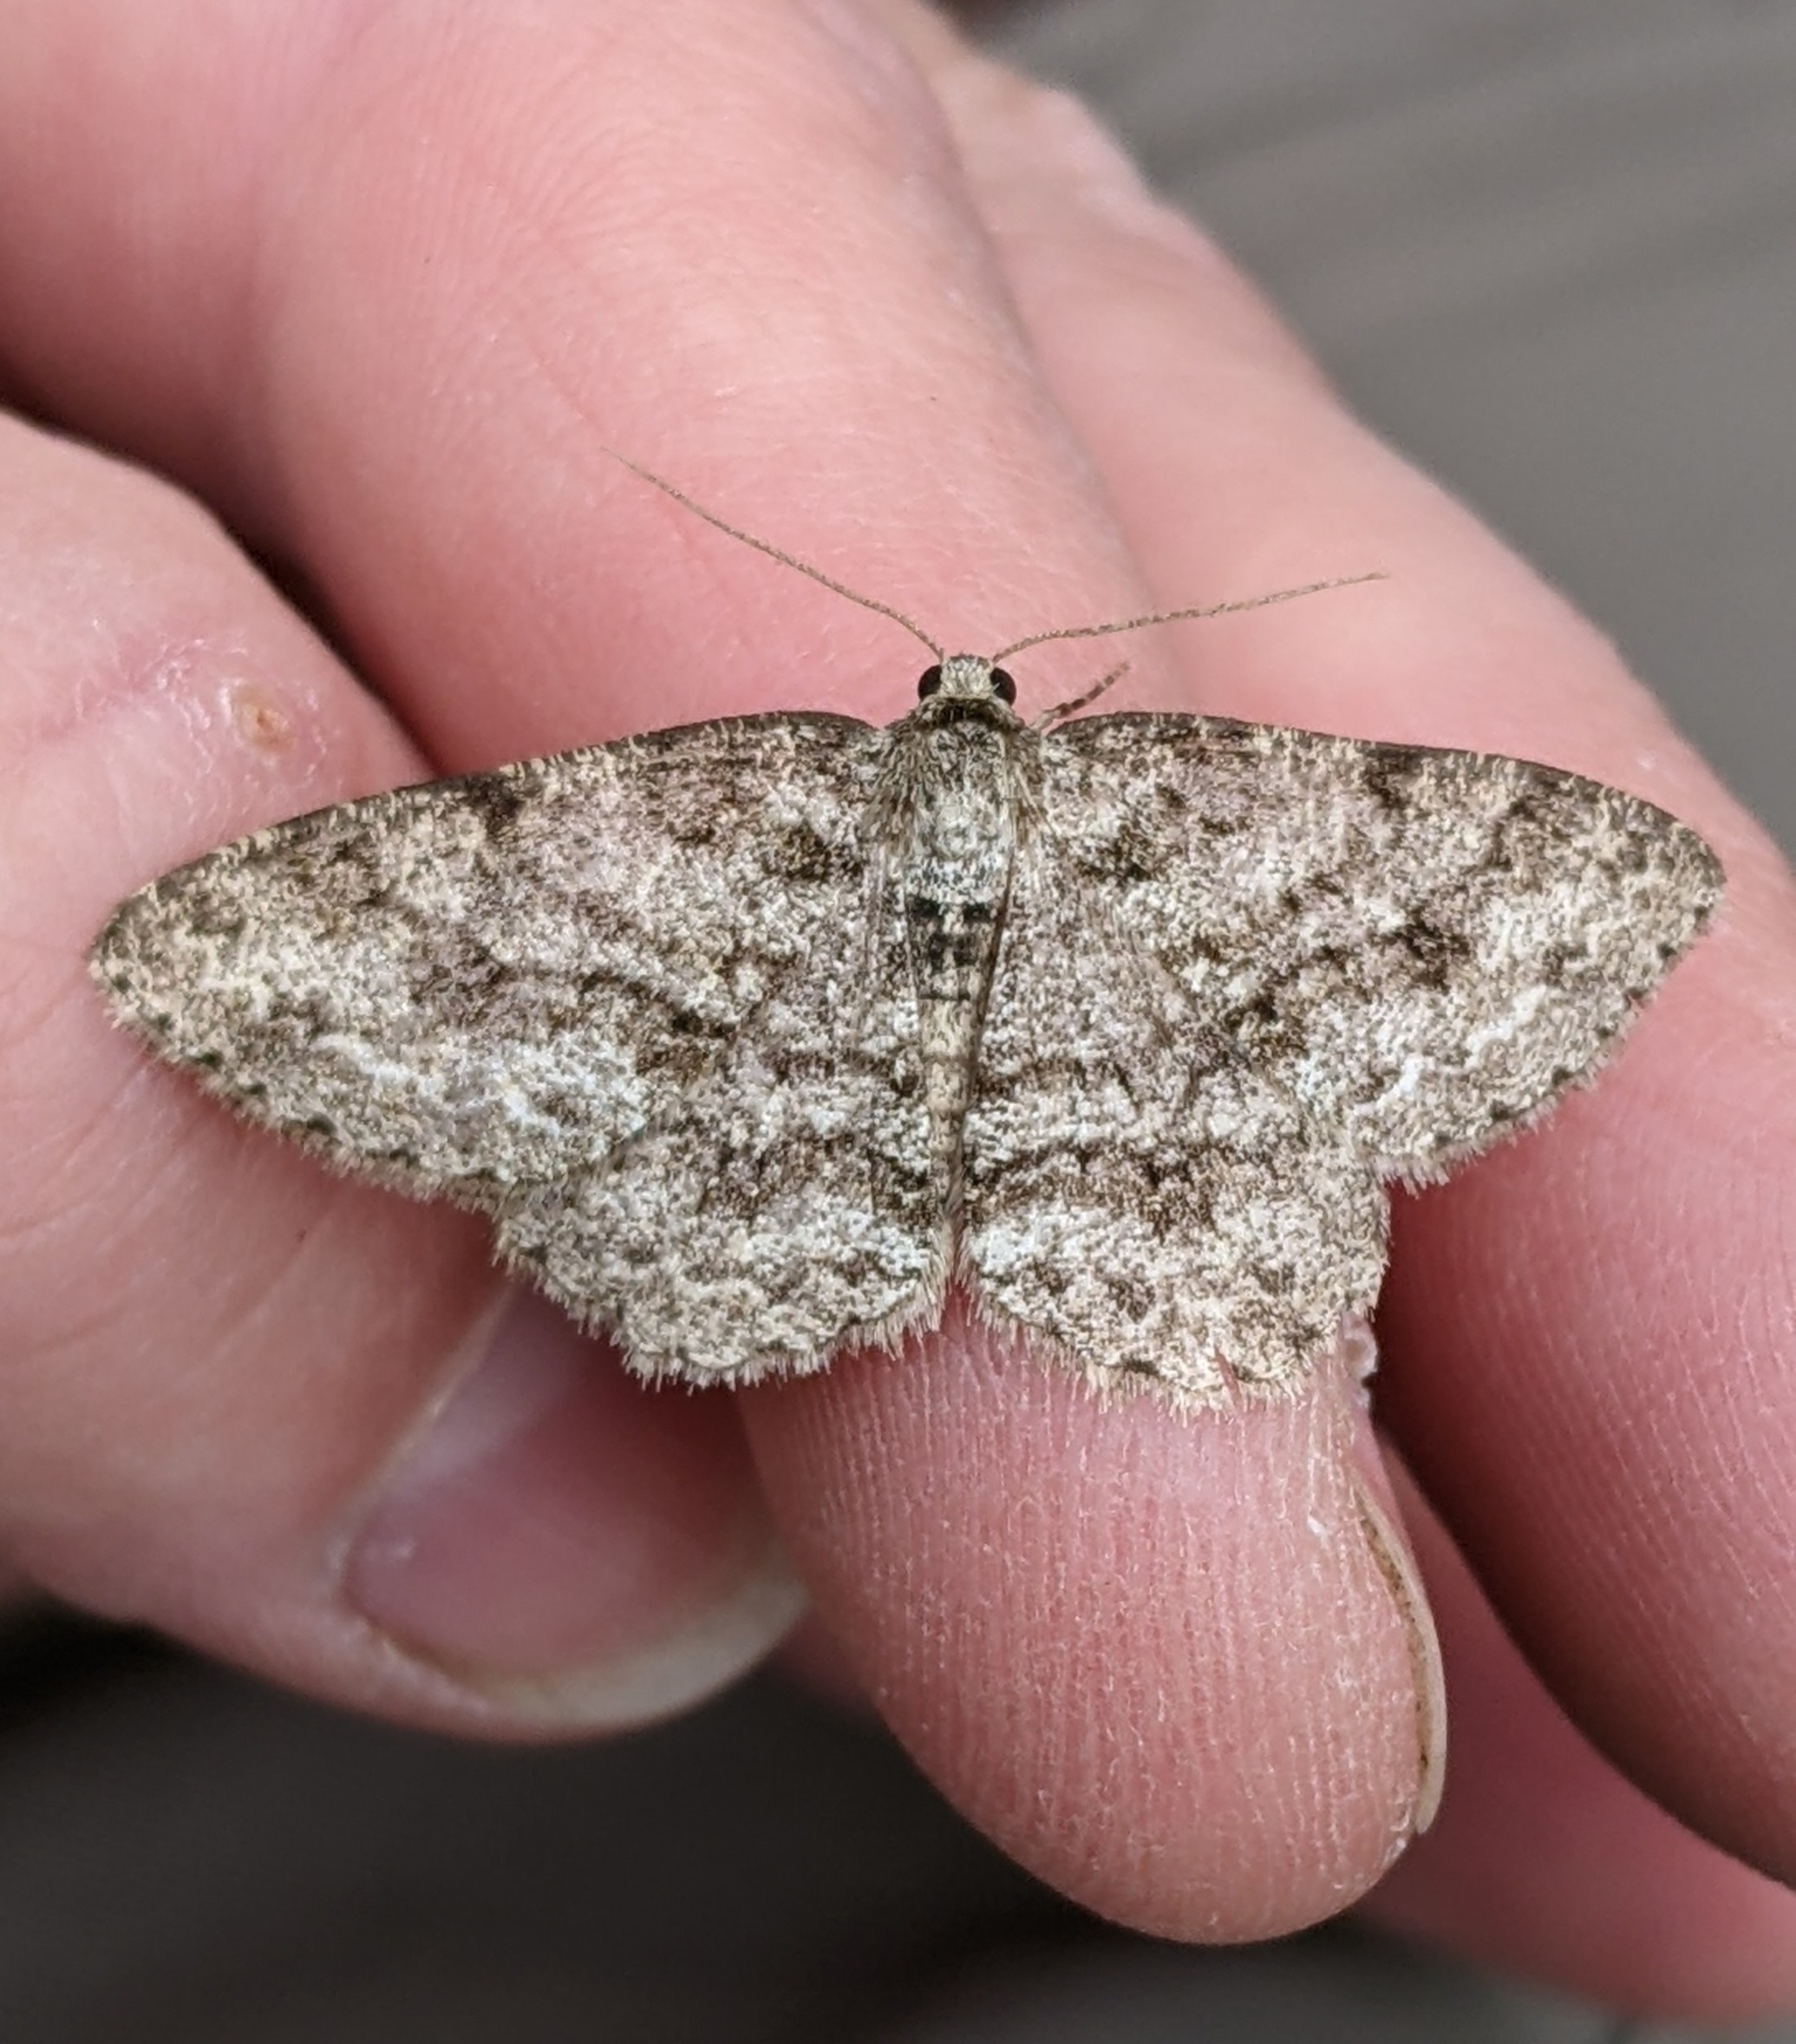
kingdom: Animalia
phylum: Arthropoda
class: Insecta
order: Lepidoptera
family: Geometridae
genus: Ectropis
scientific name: Ectropis crepuscularia
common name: Engrailed
